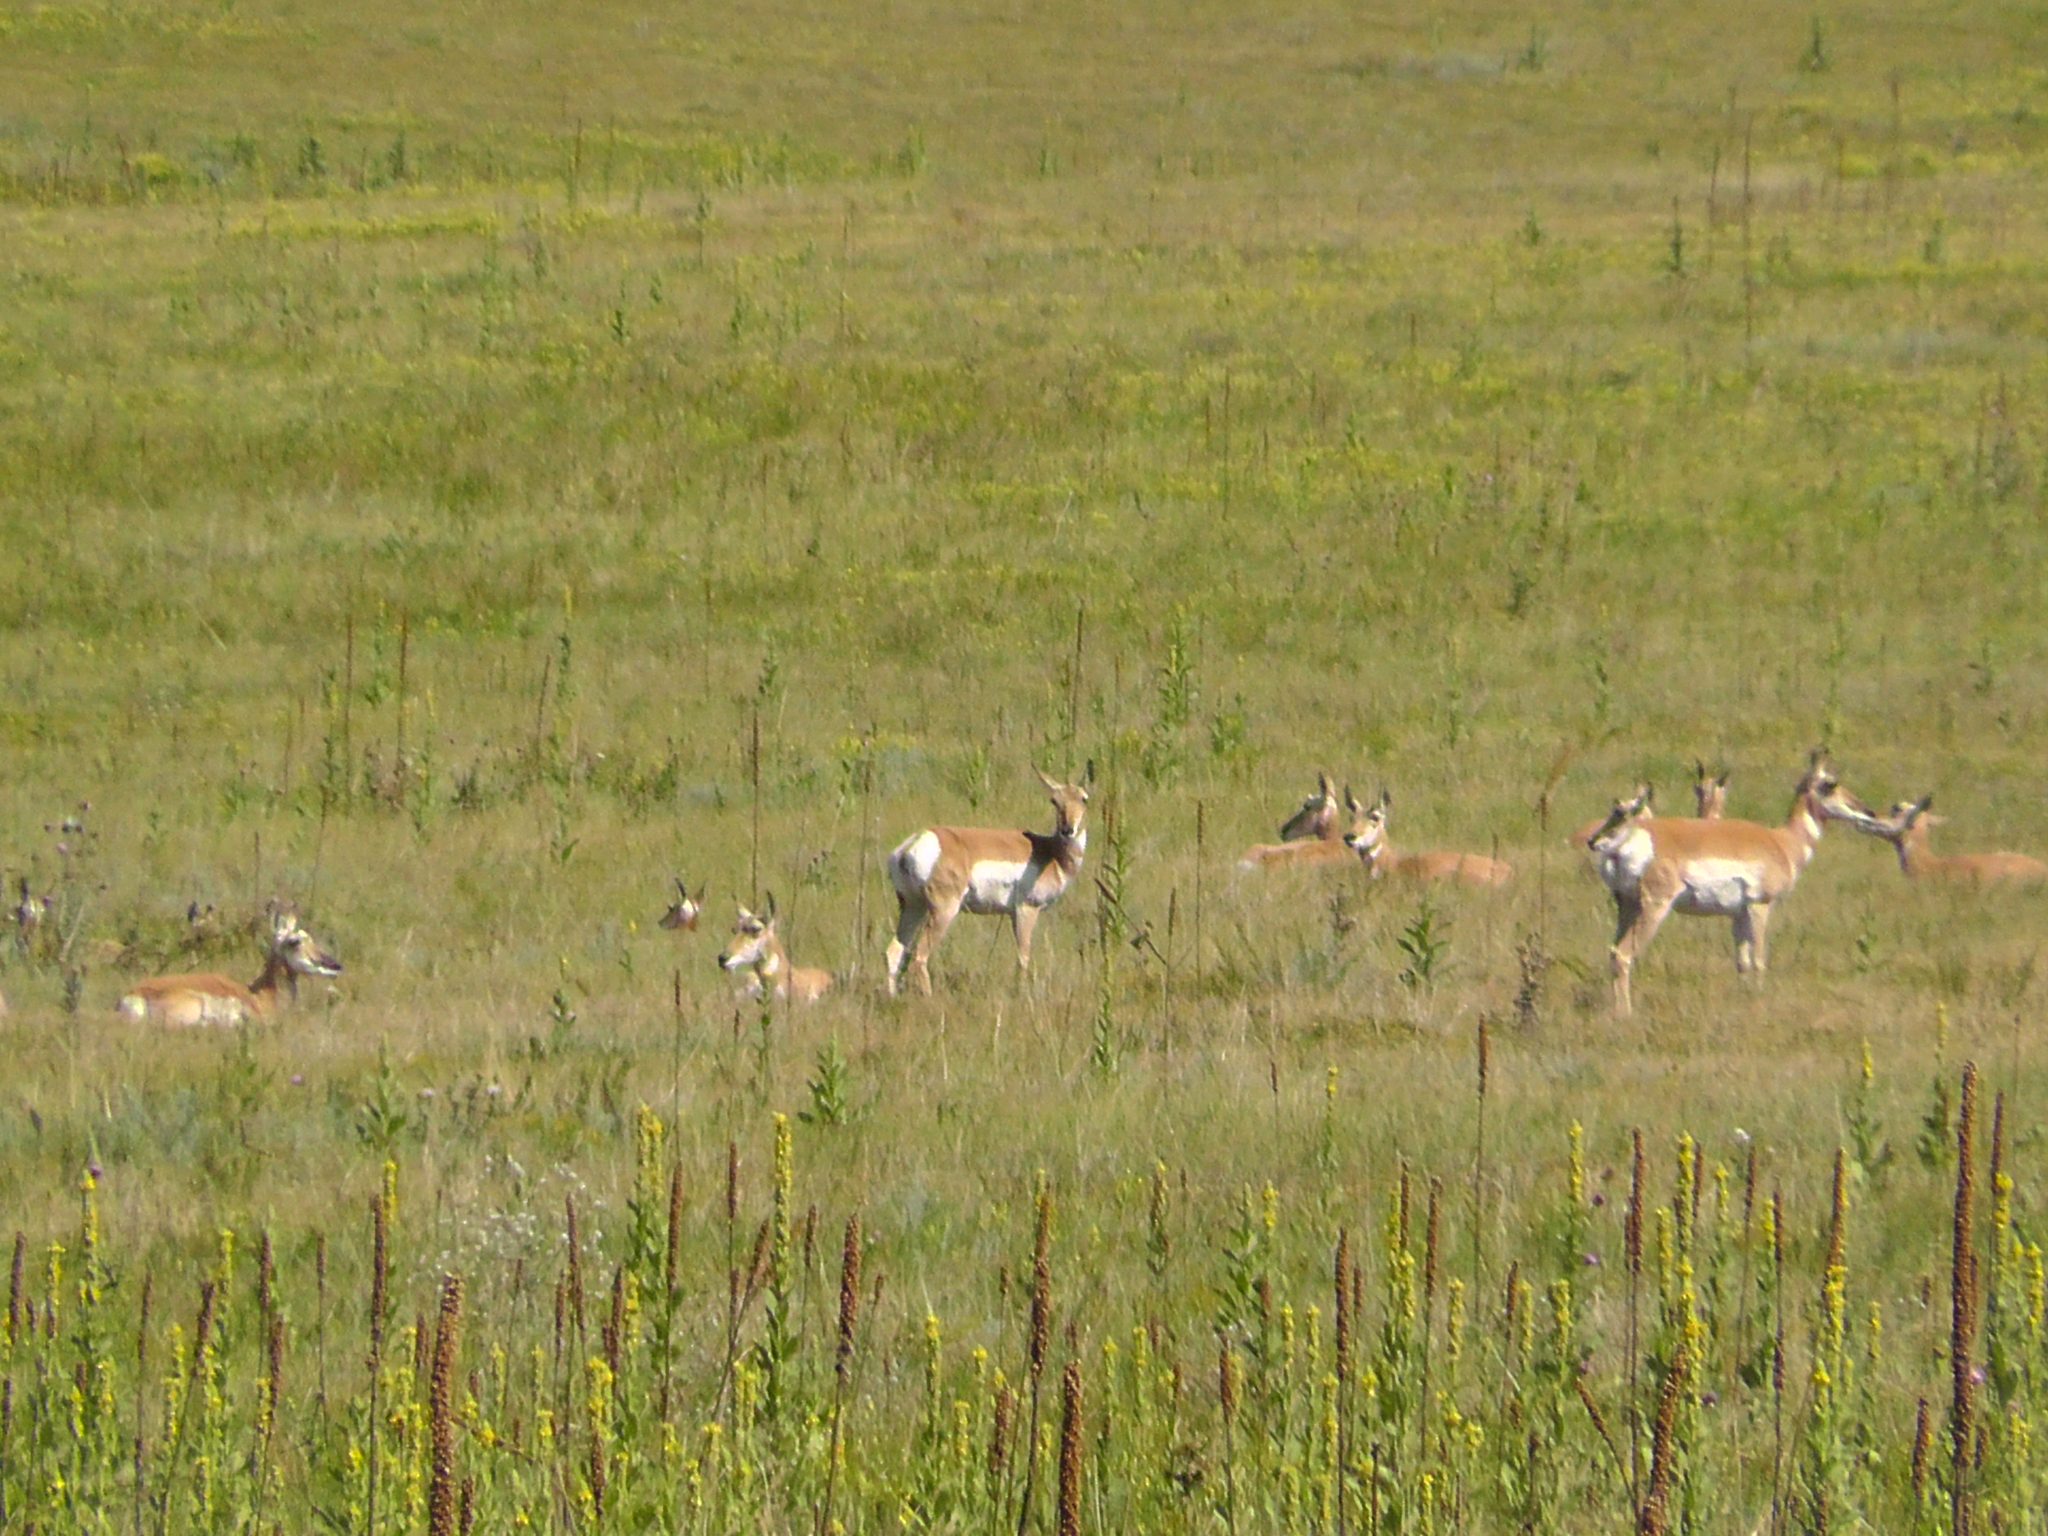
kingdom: Animalia
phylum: Chordata
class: Mammalia
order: Artiodactyla
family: Antilocapridae
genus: Antilocapra
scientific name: Antilocapra americana
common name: Pronghorn
